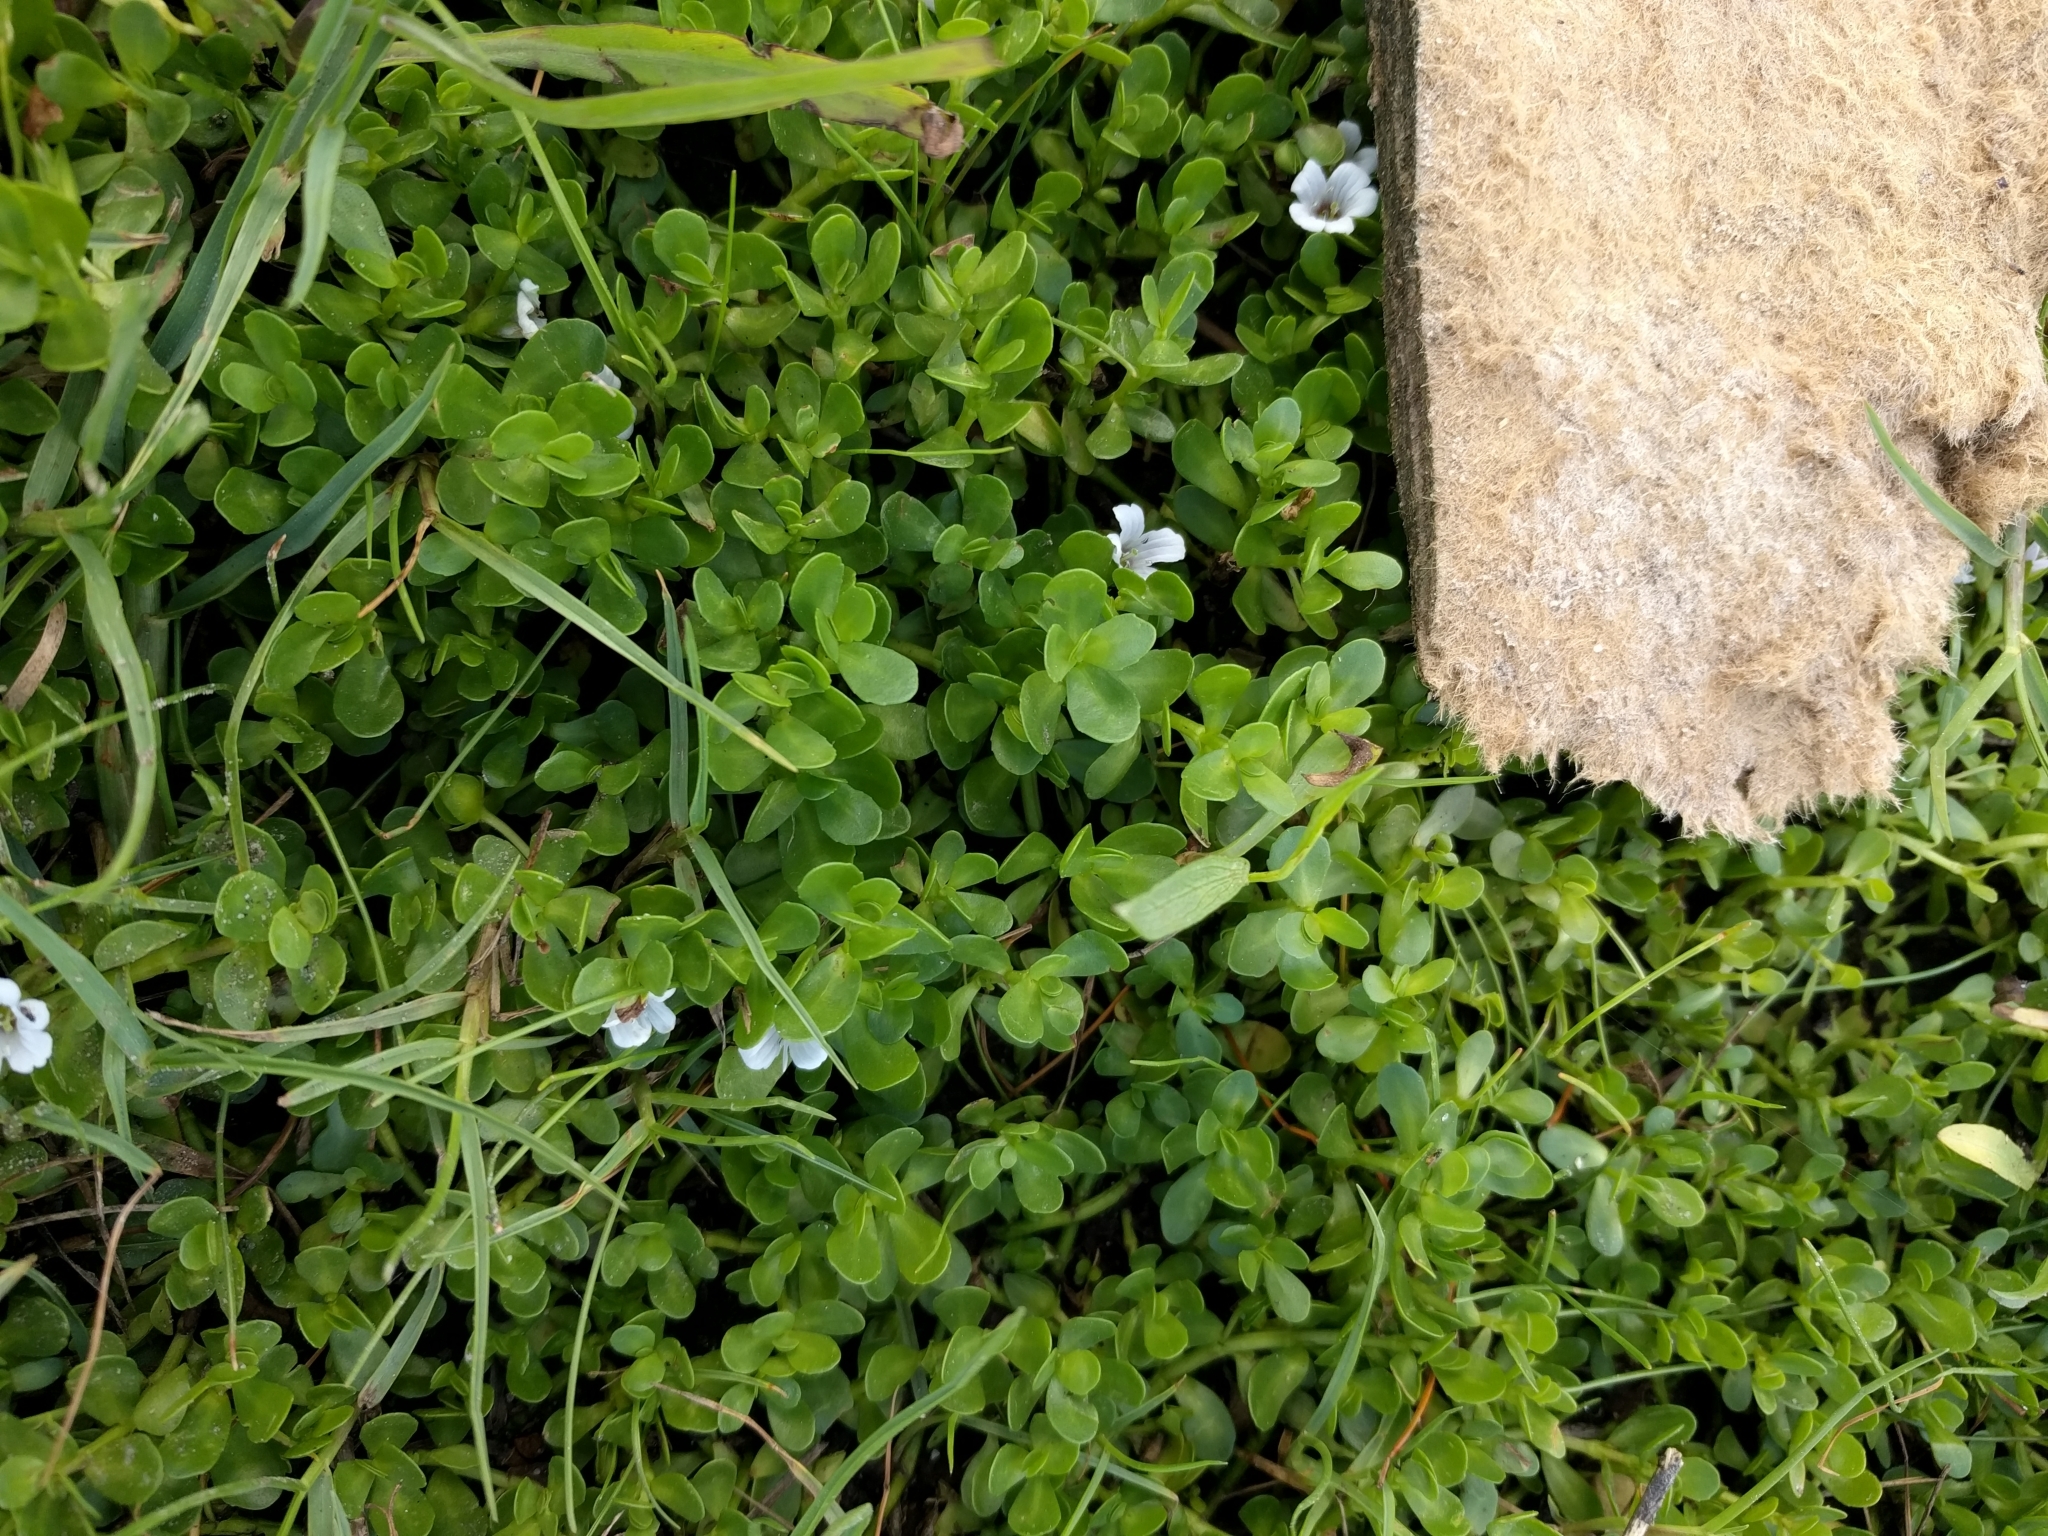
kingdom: Plantae
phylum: Tracheophyta
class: Magnoliopsida
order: Lamiales
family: Plantaginaceae
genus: Bacopa
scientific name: Bacopa monnieri
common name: Indian-pennywort
